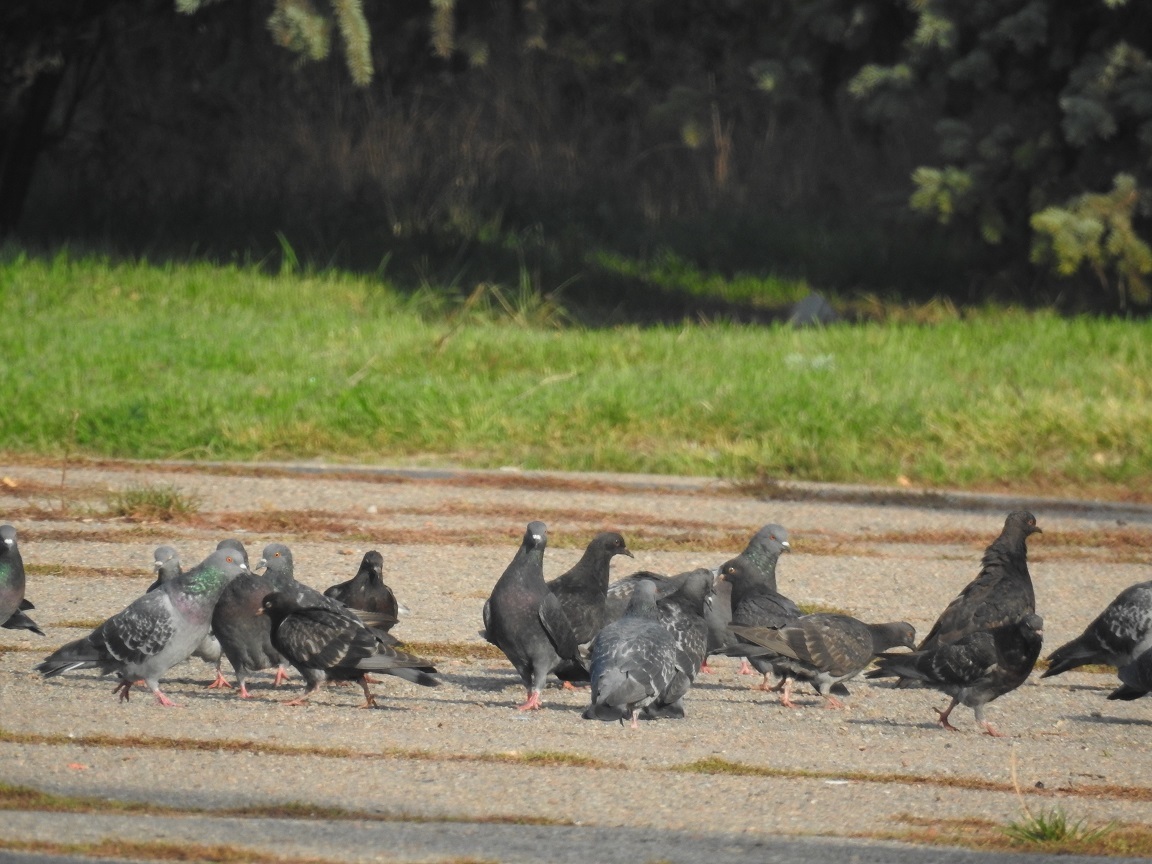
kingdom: Animalia
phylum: Chordata
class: Aves
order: Columbiformes
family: Columbidae
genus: Columba
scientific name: Columba livia
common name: Rock pigeon
